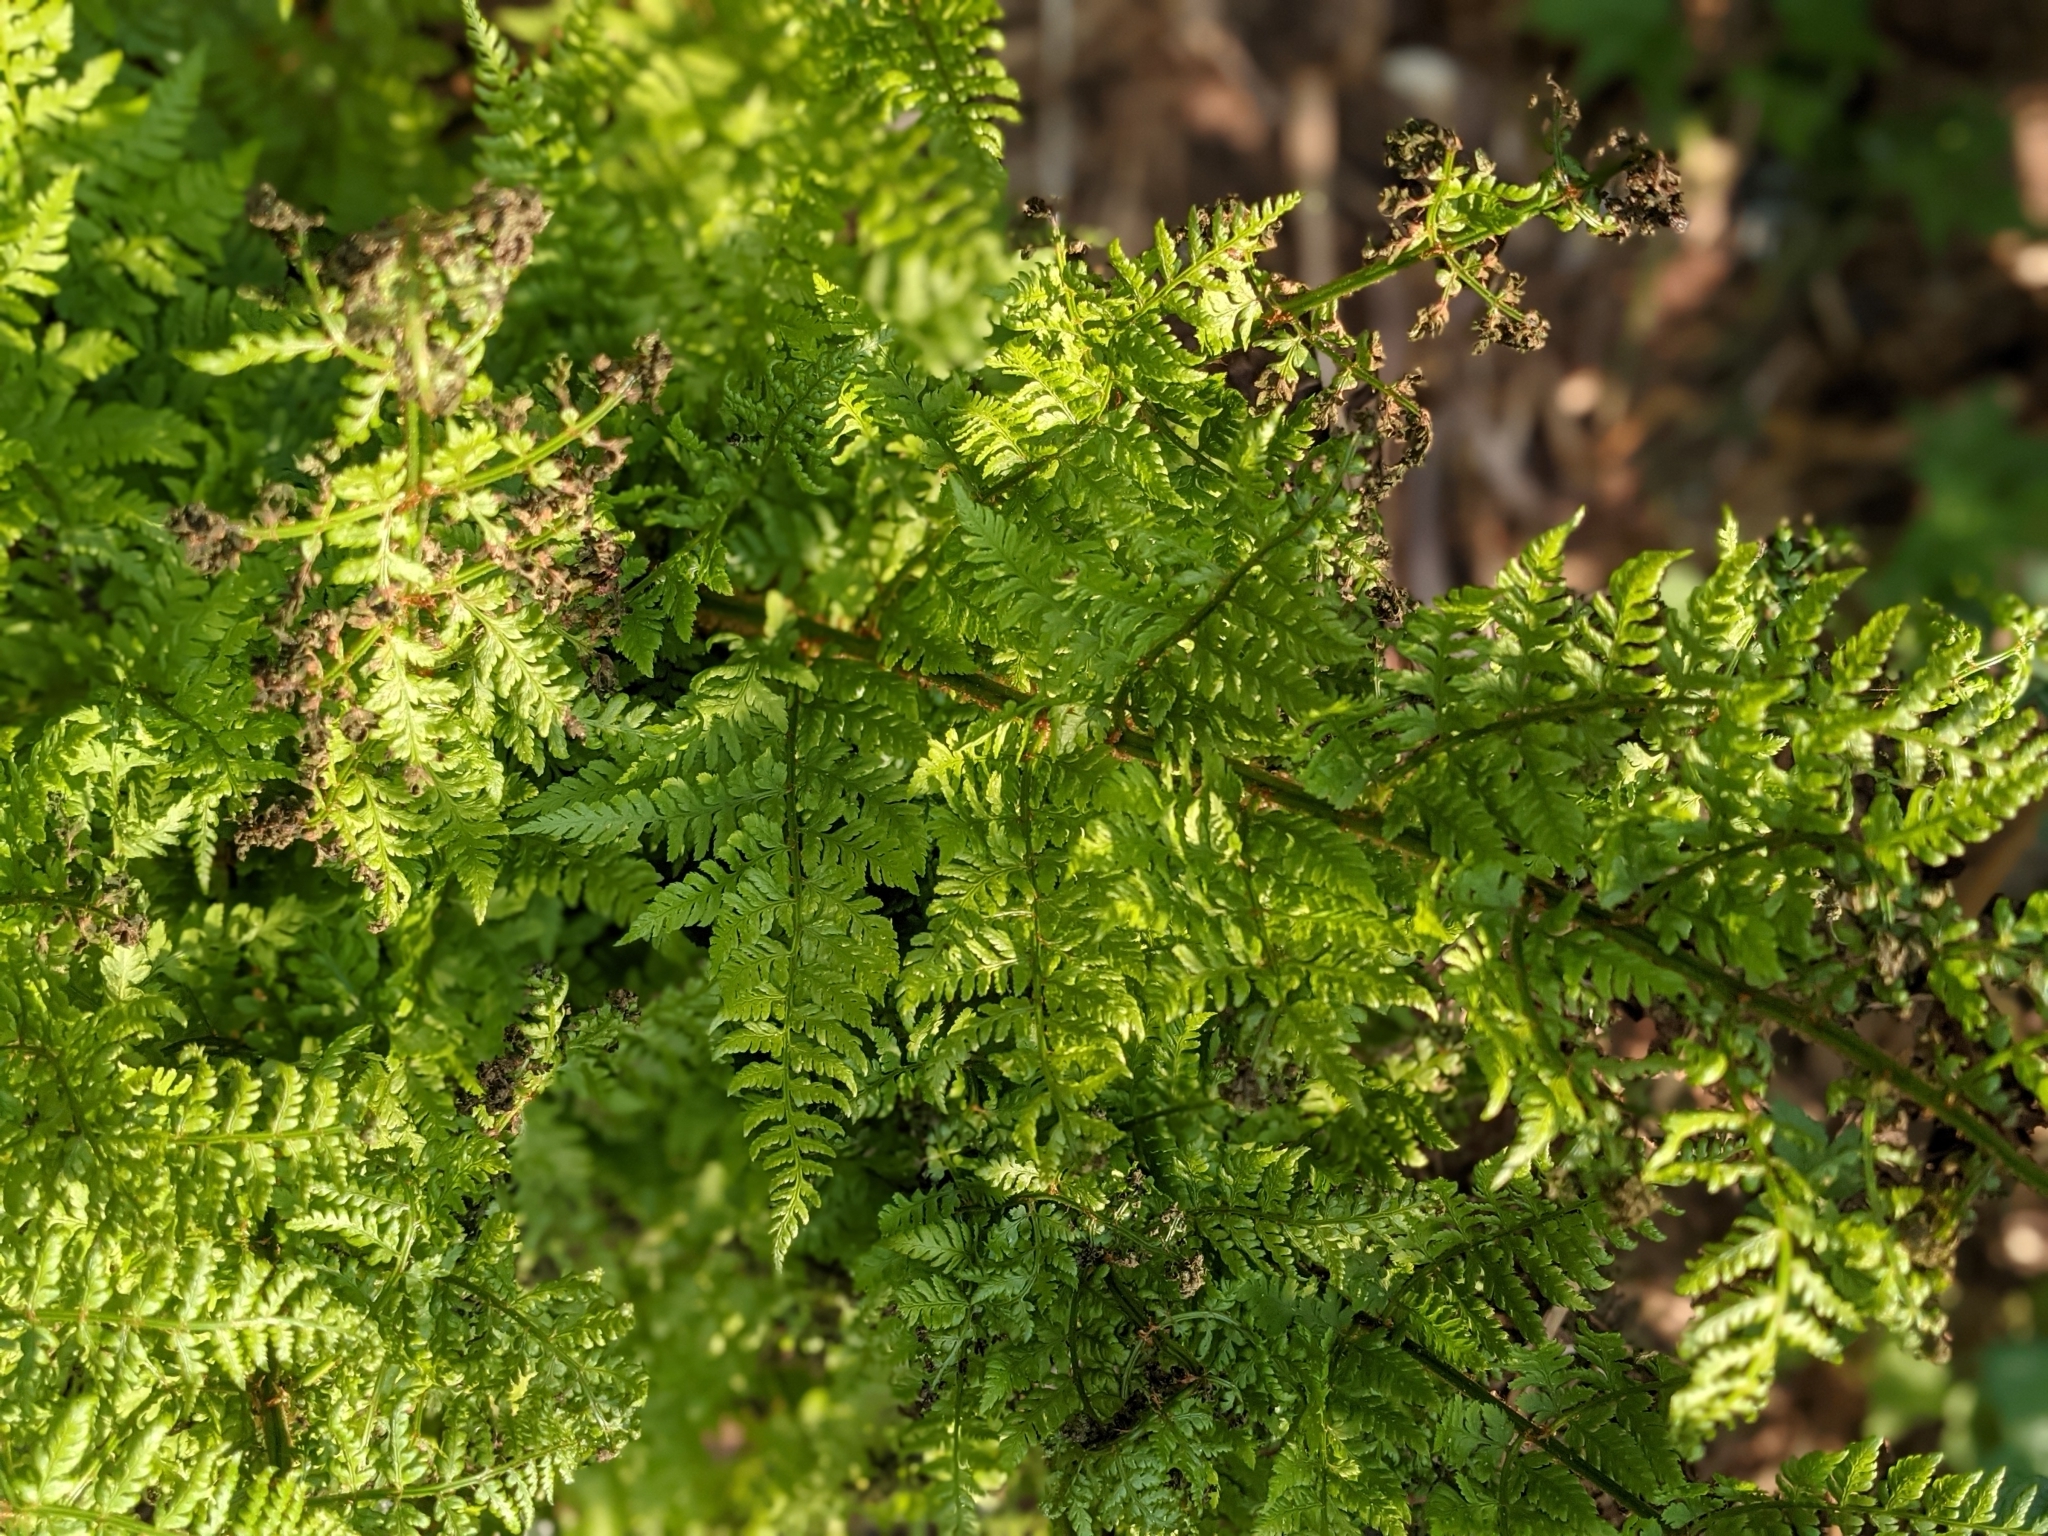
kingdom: Plantae
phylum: Tracheophyta
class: Polypodiopsida
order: Polypodiales
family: Dryopteridaceae
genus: Dryopteris
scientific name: Dryopteris expansa
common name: Northern buckler fern
